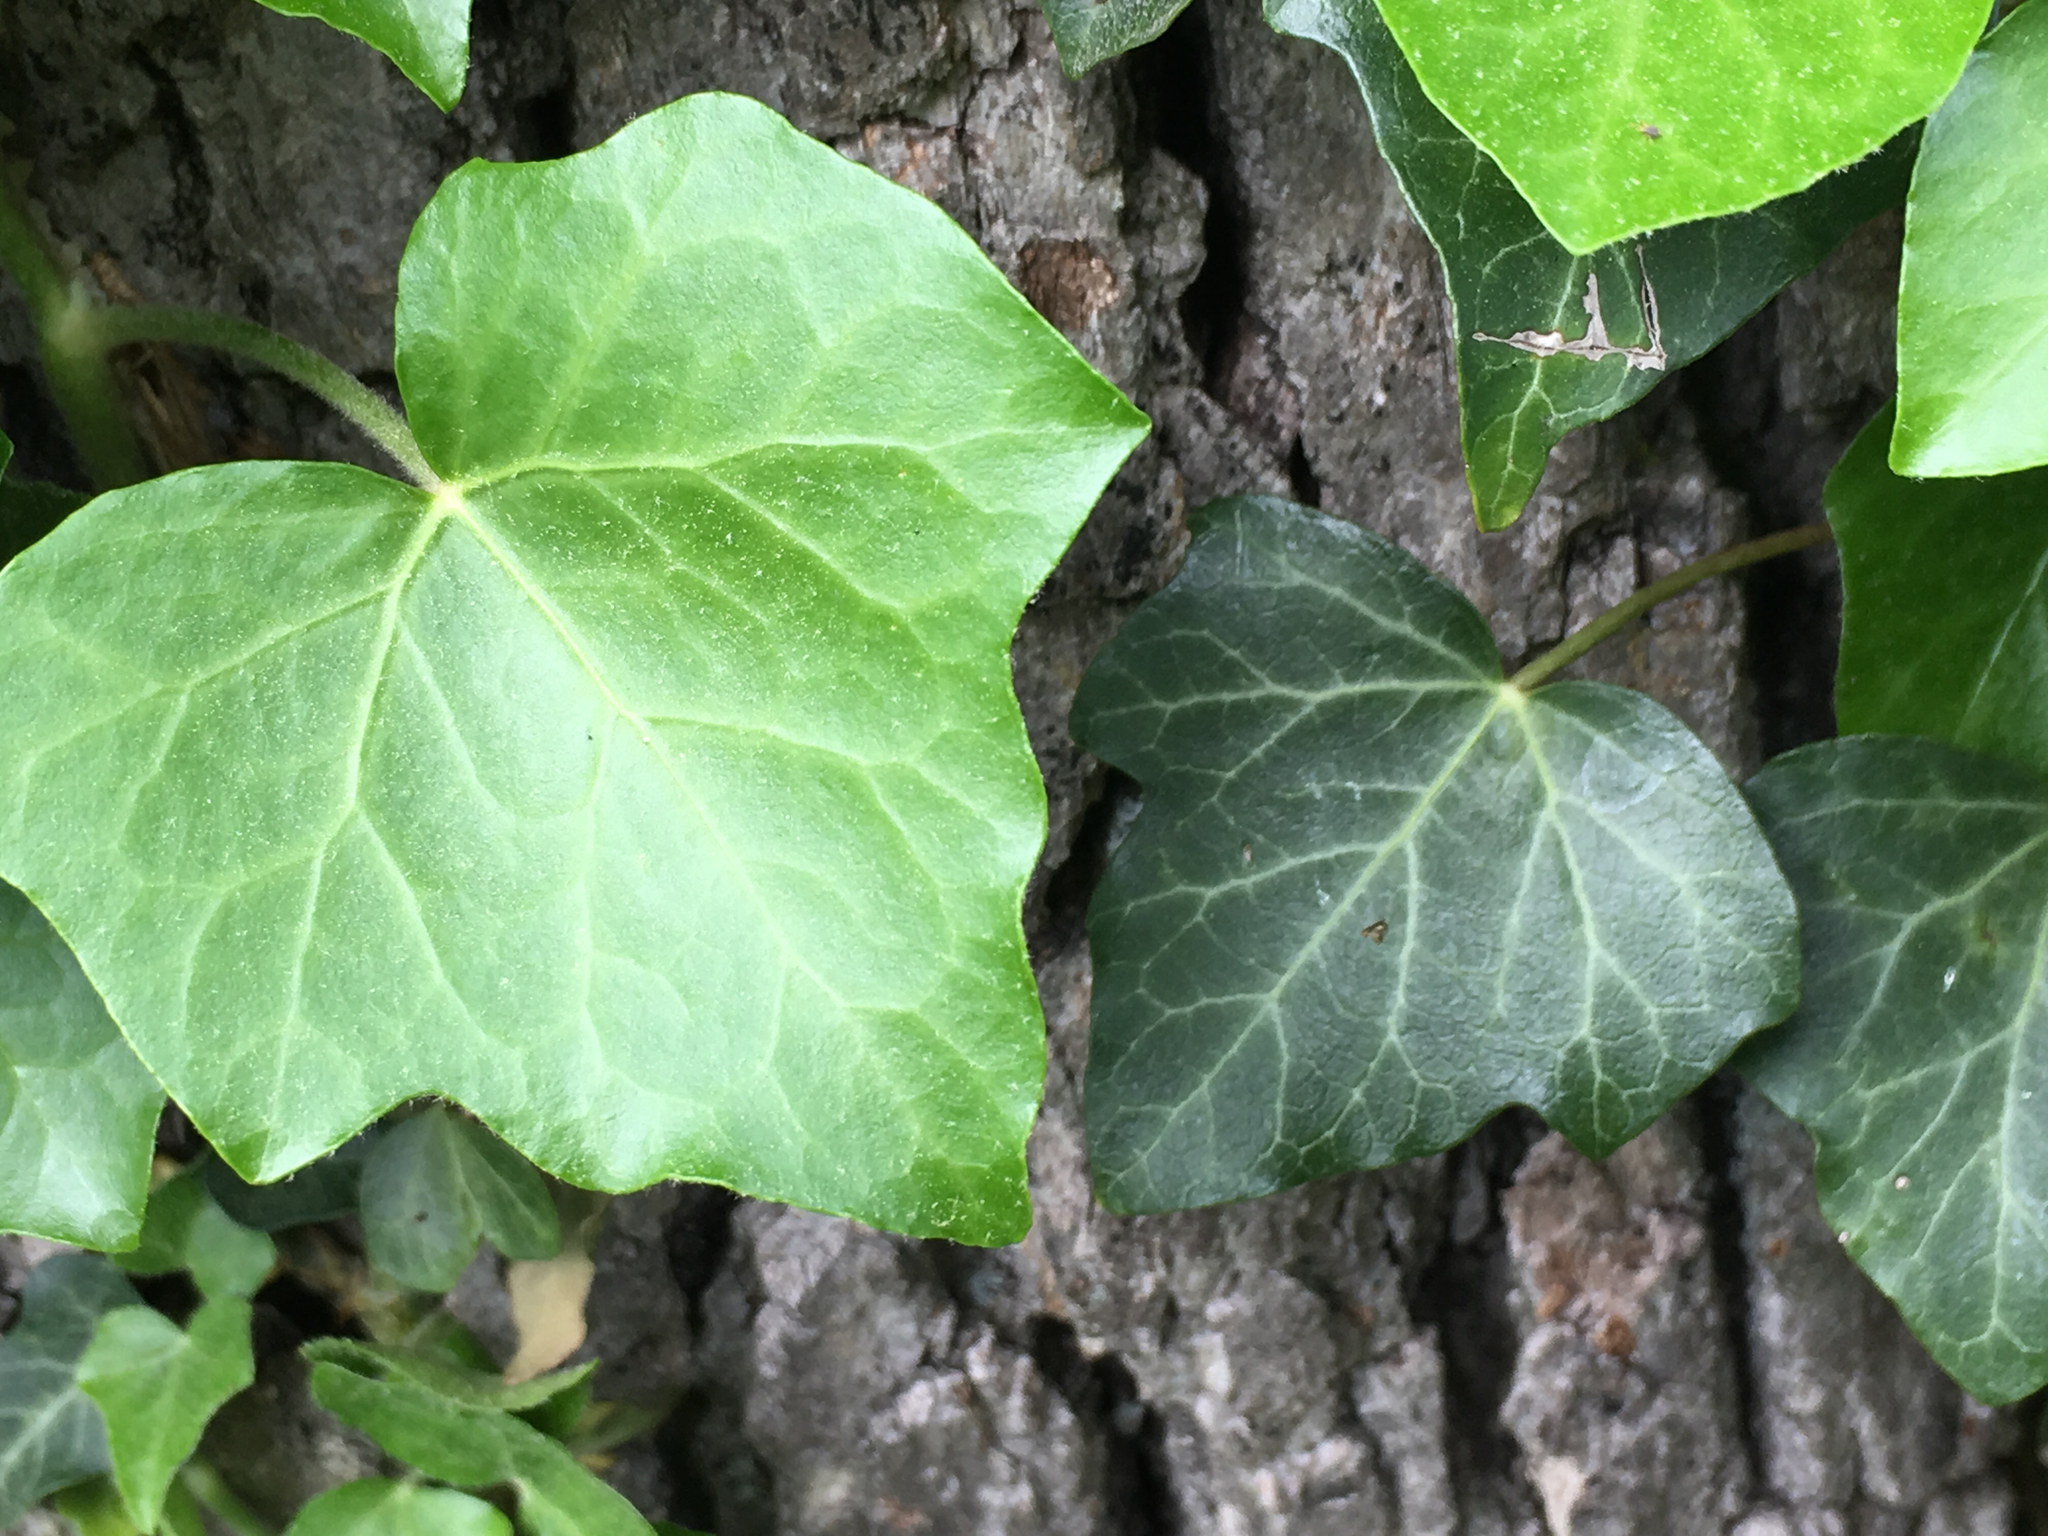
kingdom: Plantae
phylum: Tracheophyta
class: Magnoliopsida
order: Apiales
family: Araliaceae
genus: Hedera
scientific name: Hedera helix
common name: Ivy
